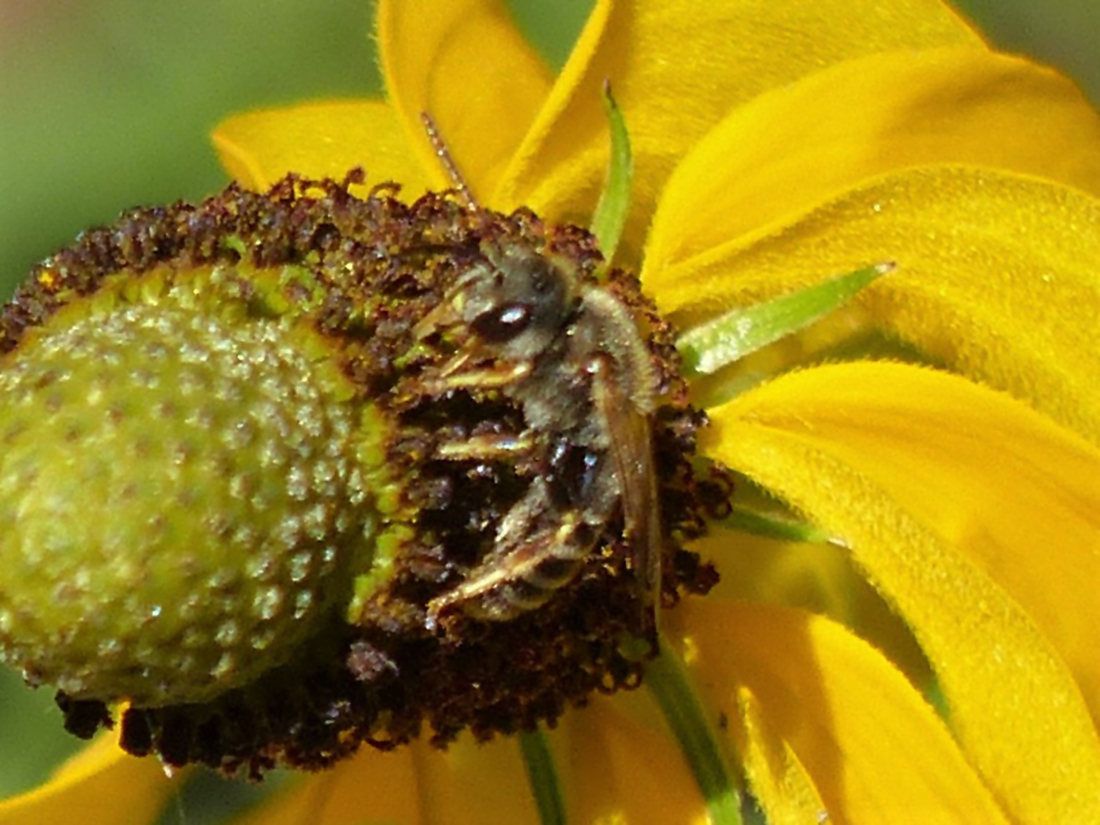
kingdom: Animalia
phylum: Arthropoda
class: Insecta
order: Hymenoptera
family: Halictidae
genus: Halictus
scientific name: Halictus ligatus
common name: Ligated furrow bee
